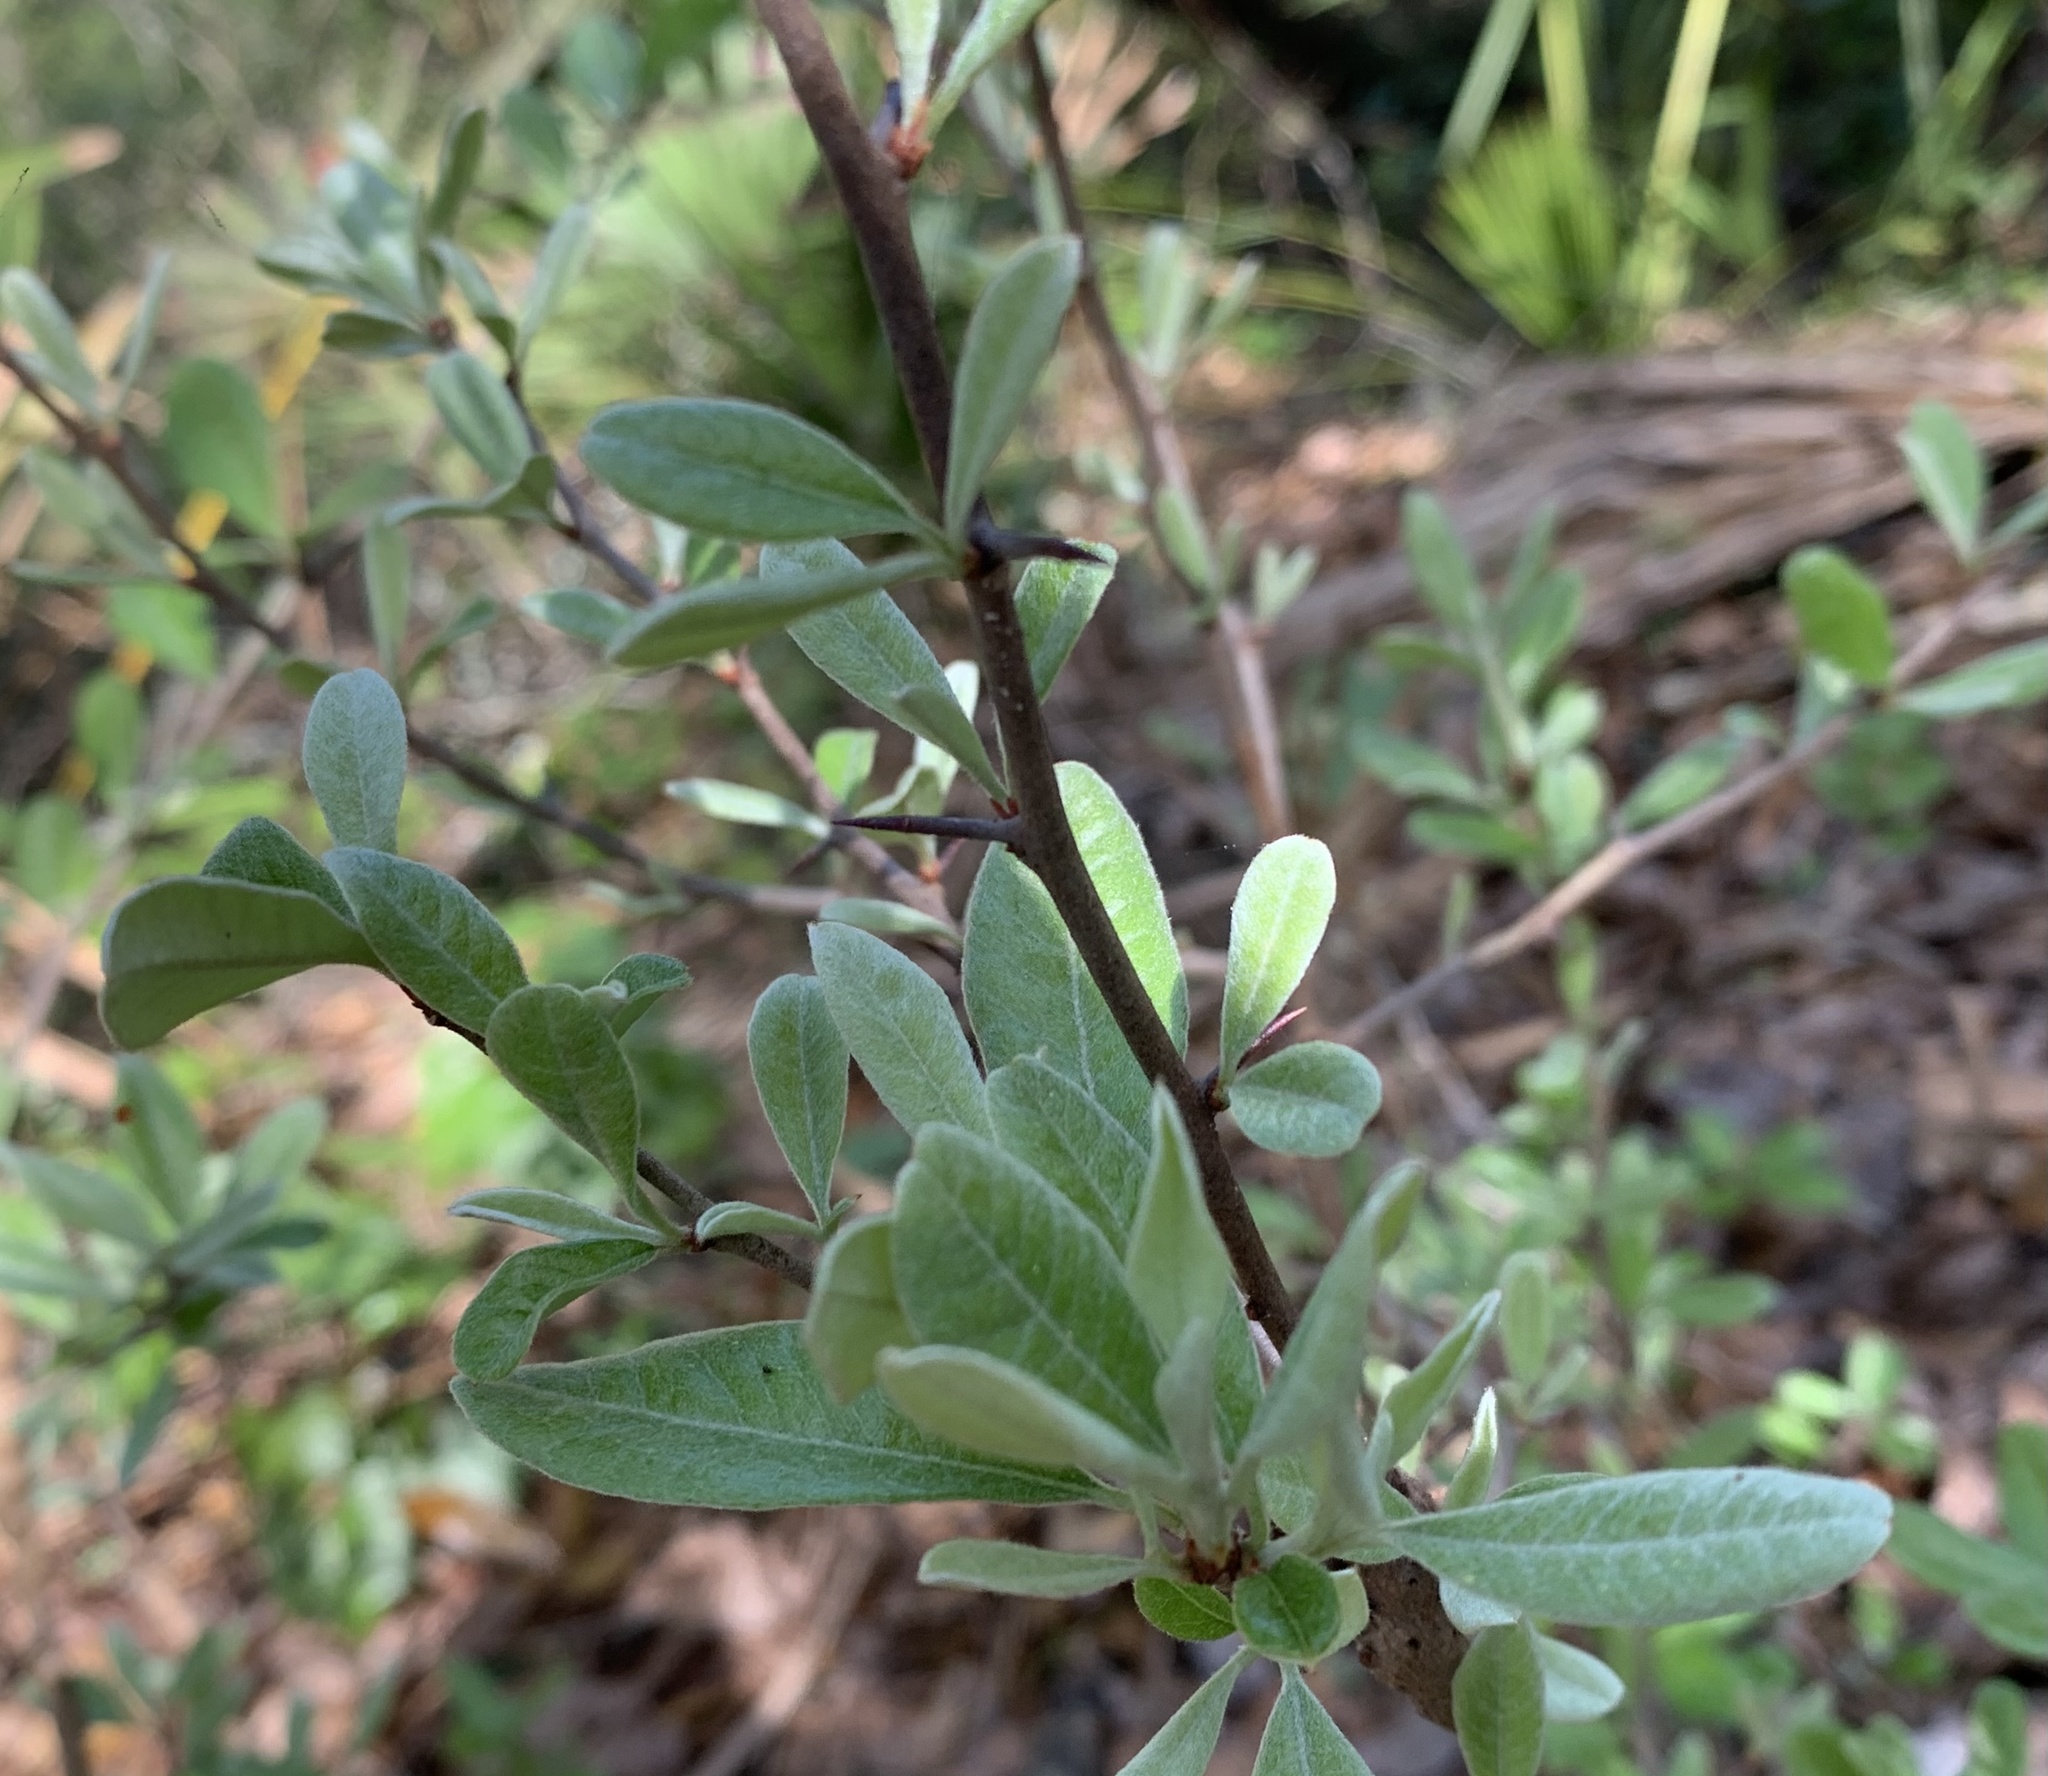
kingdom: Plantae
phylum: Tracheophyta
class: Magnoliopsida
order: Ericales
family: Sapotaceae
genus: Sideroxylon
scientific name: Sideroxylon lanuginosum
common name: Chittamwood
